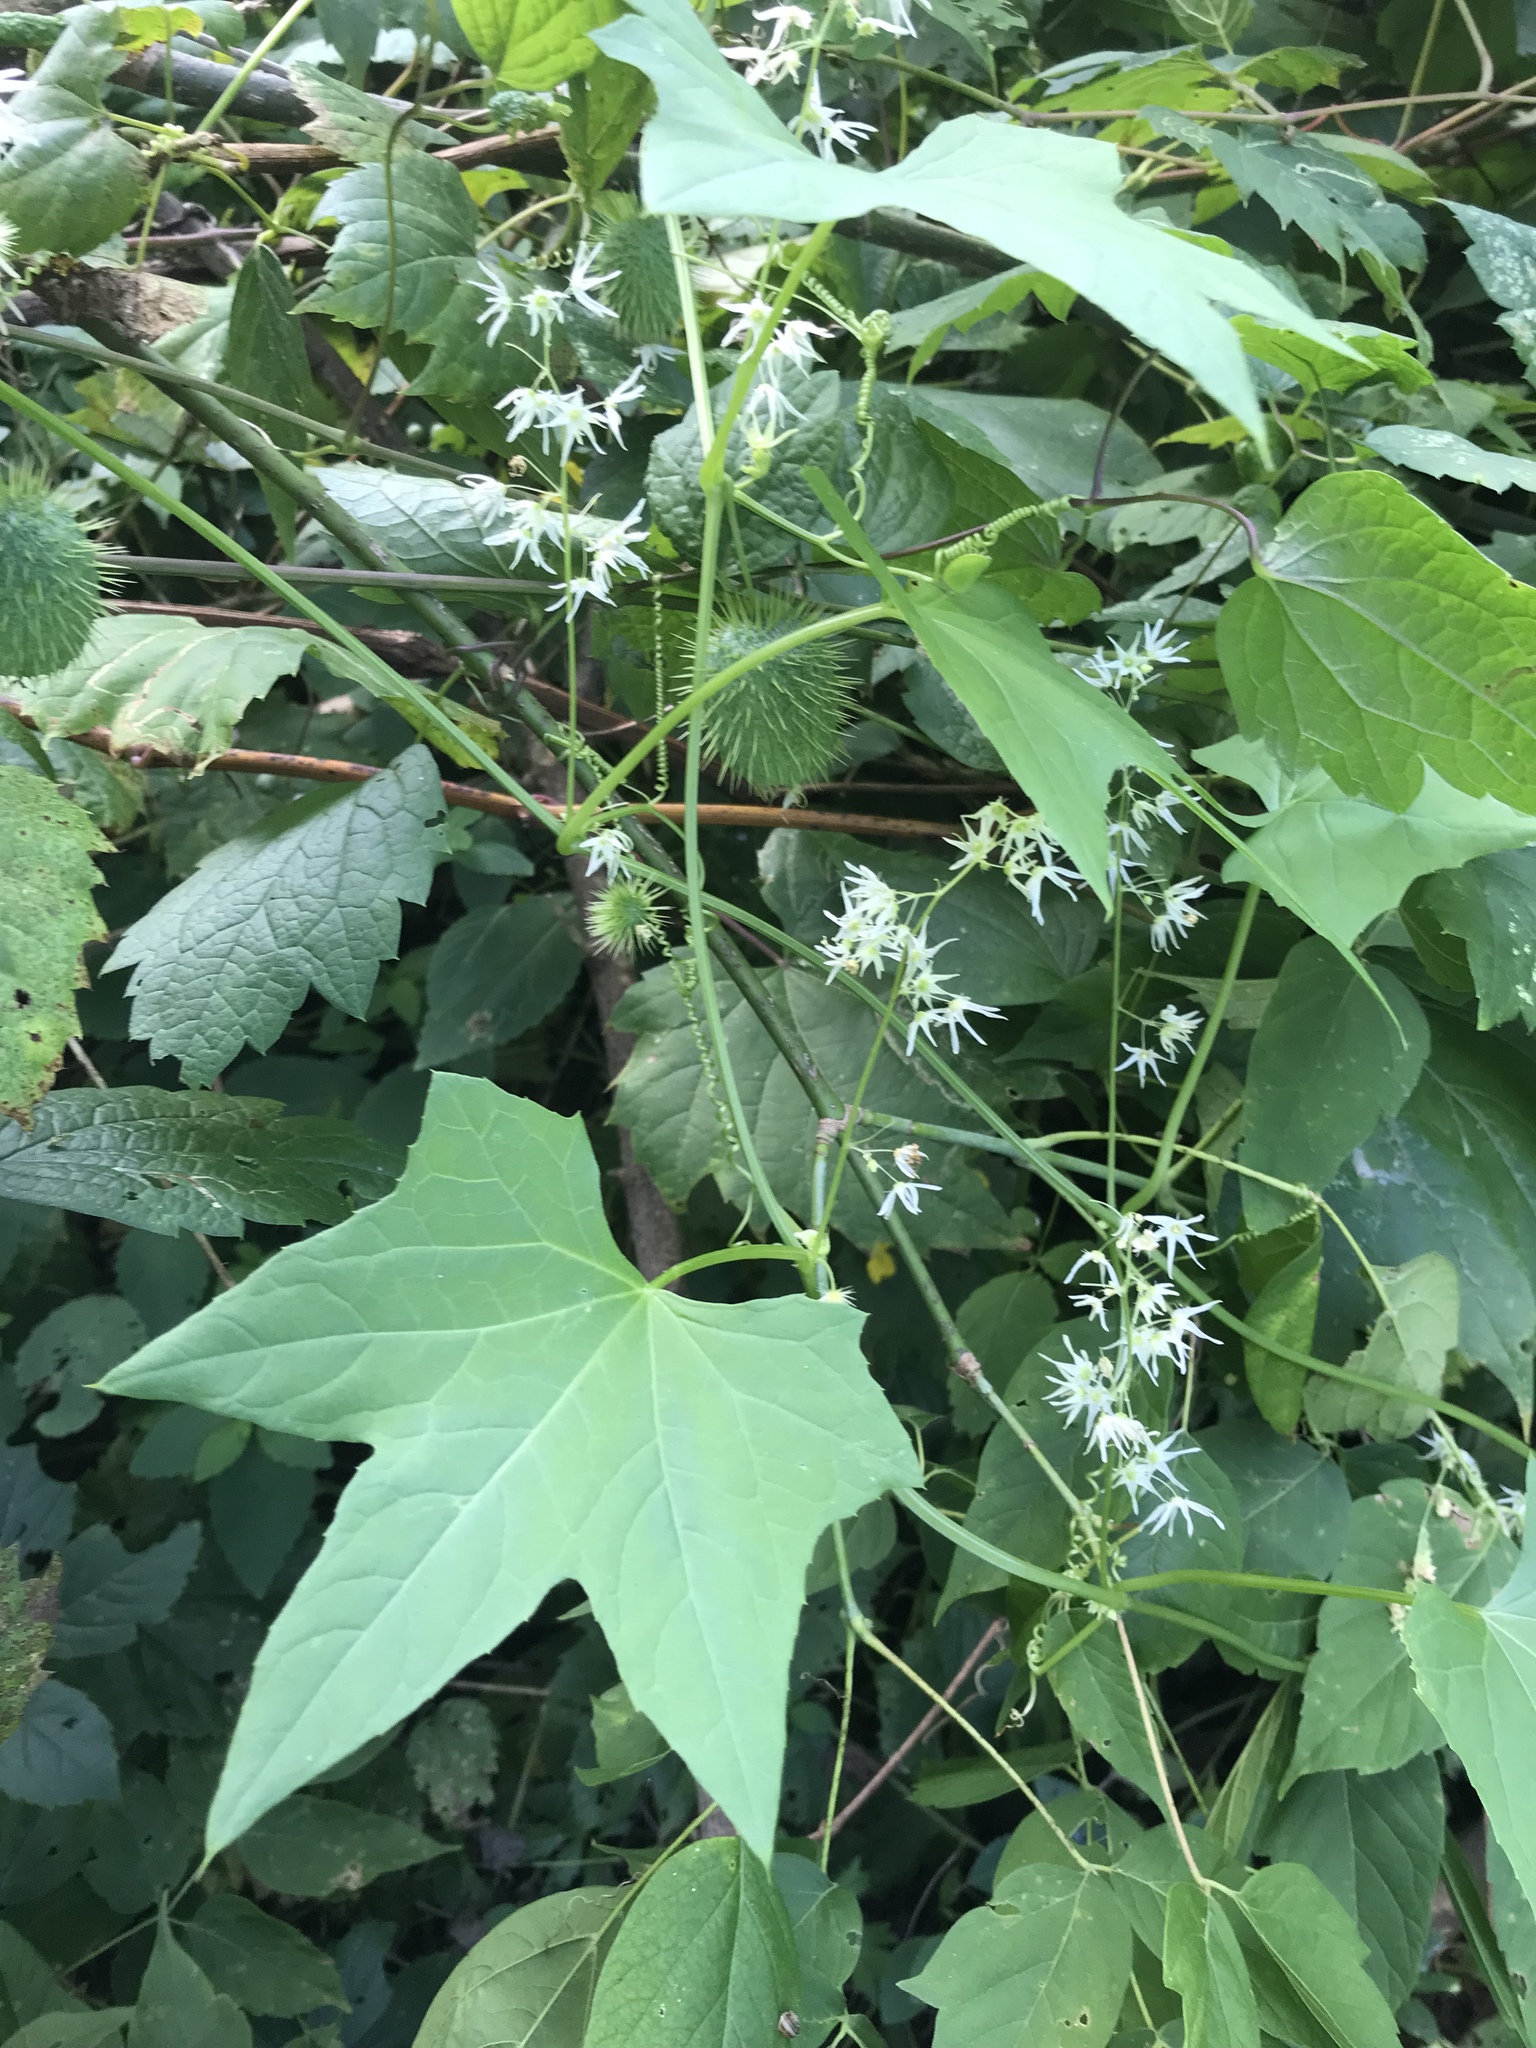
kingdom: Plantae
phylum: Tracheophyta
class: Magnoliopsida
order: Cucurbitales
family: Cucurbitaceae
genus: Echinocystis
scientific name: Echinocystis lobata
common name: Wild cucumber
